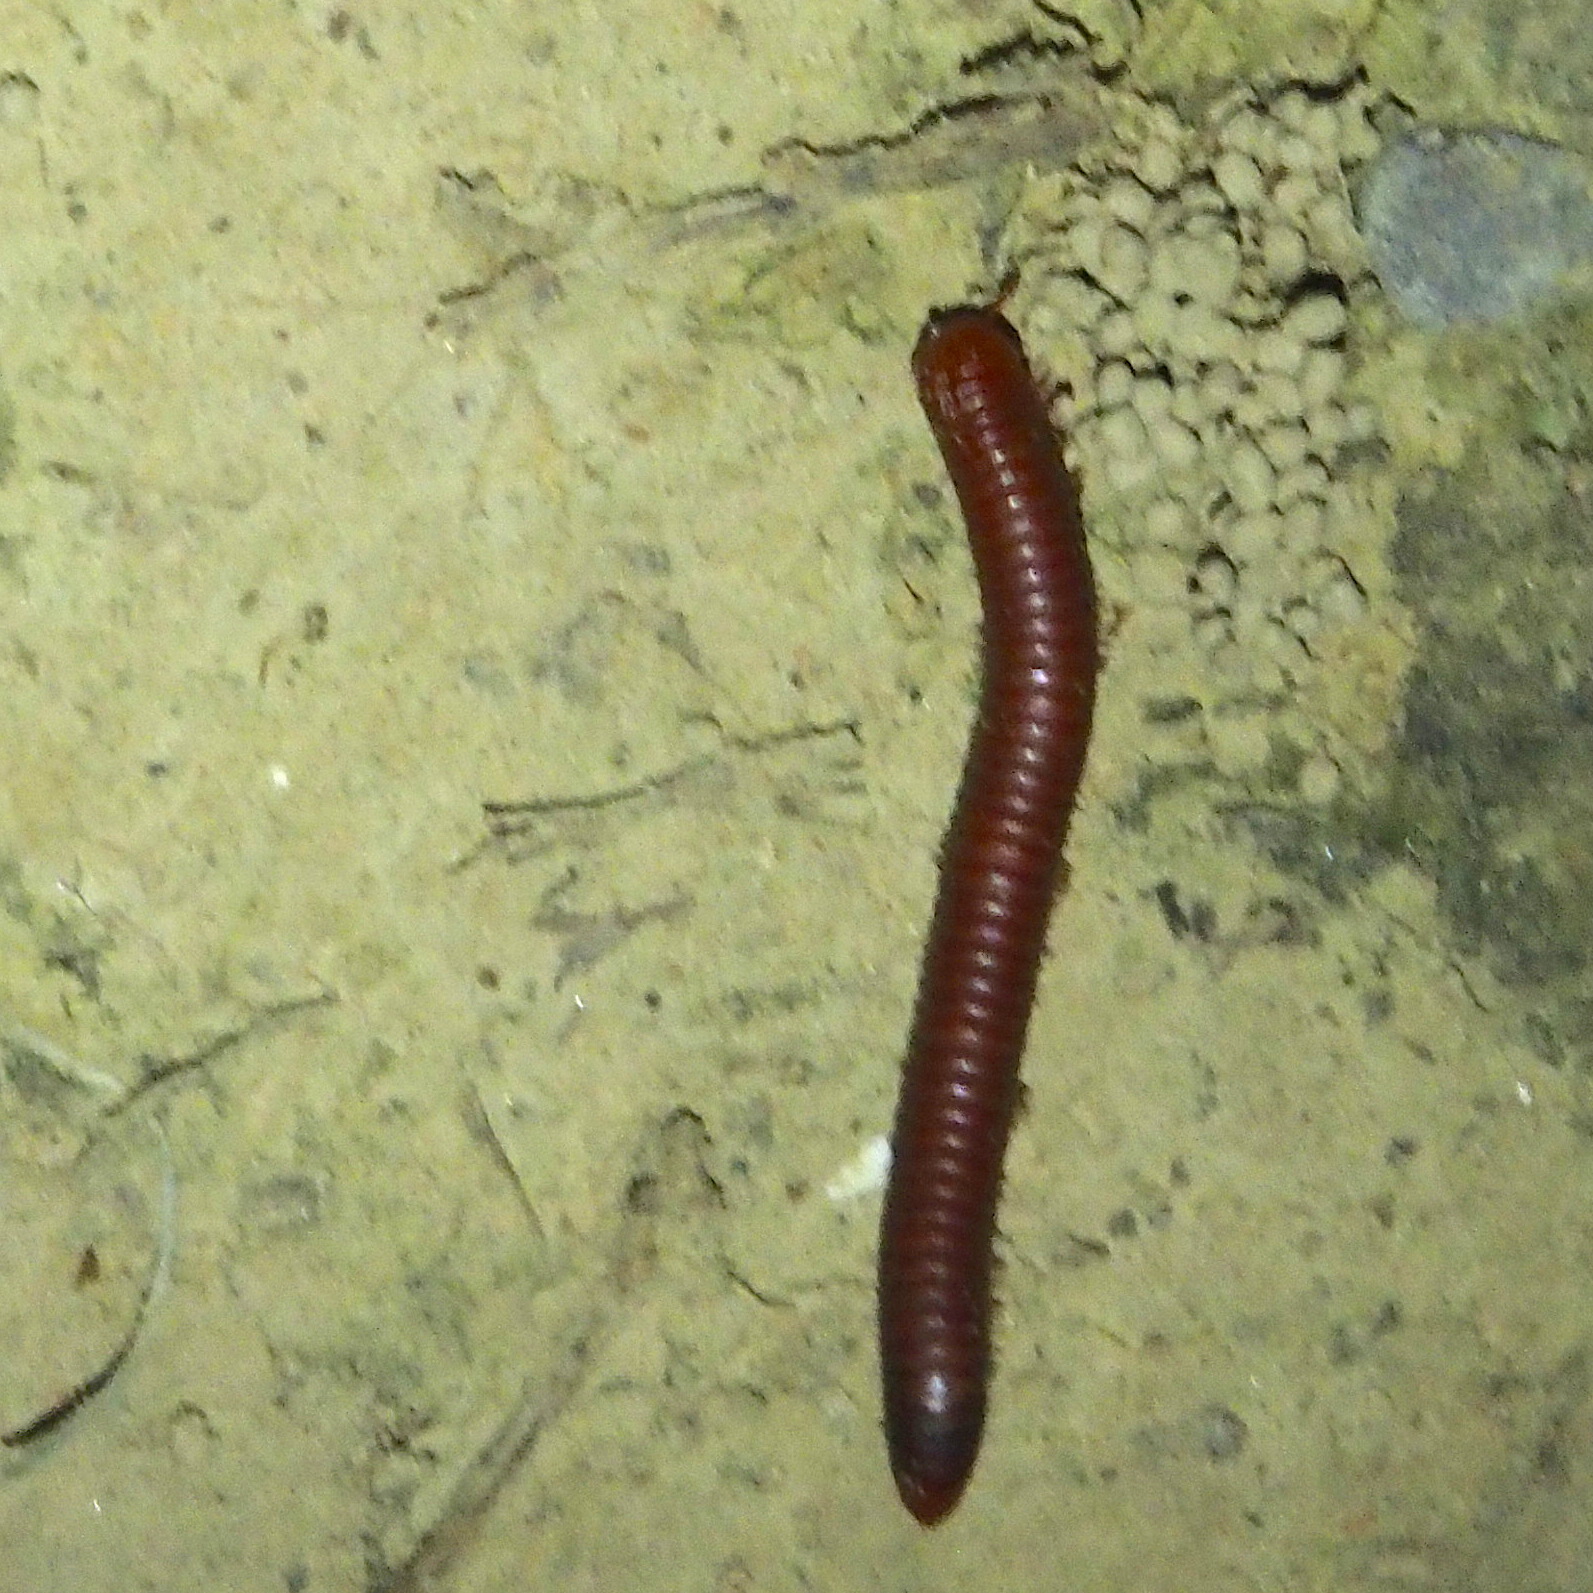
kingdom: Animalia
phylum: Arthropoda
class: Diplopoda
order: Spirobolida
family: Pachybolidae
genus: Trigoniulus
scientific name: Trigoniulus corallinus
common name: Millipede
